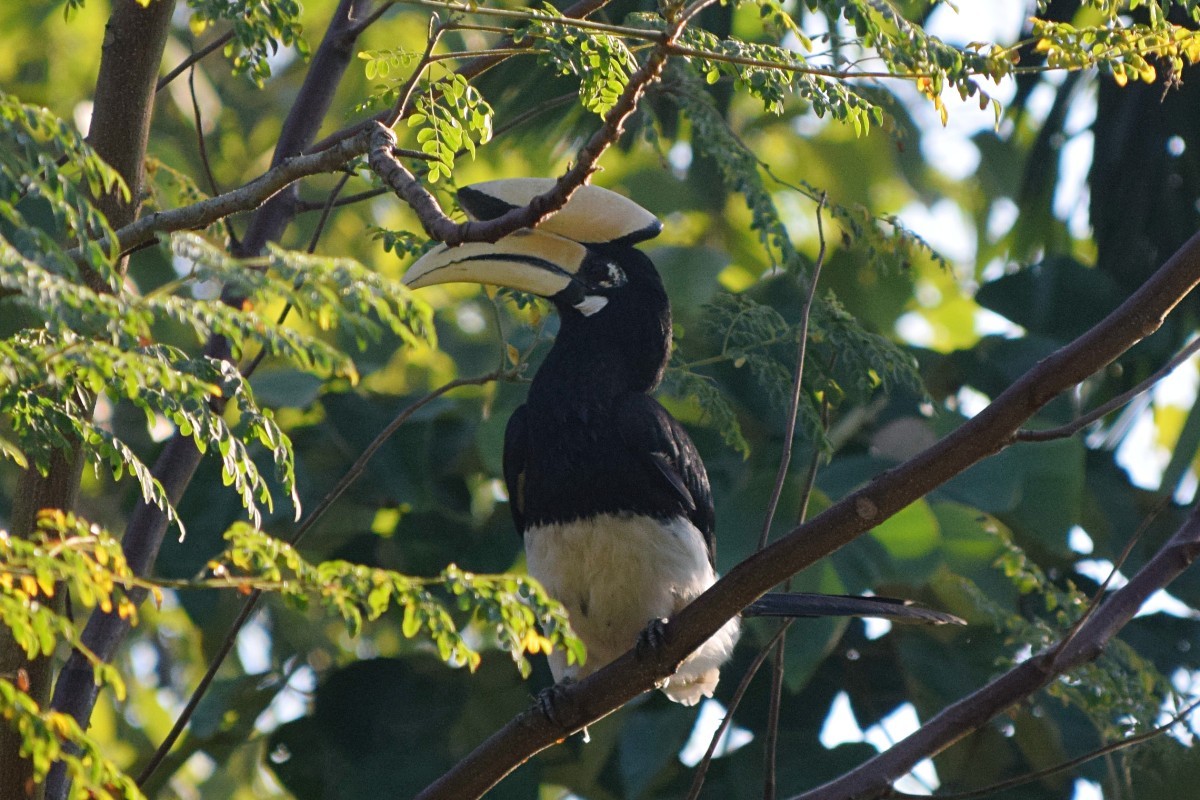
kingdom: Animalia
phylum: Chordata
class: Aves
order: Bucerotiformes
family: Bucerotidae
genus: Anthracoceros
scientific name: Anthracoceros albirostris
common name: Oriental pied-hornbill
